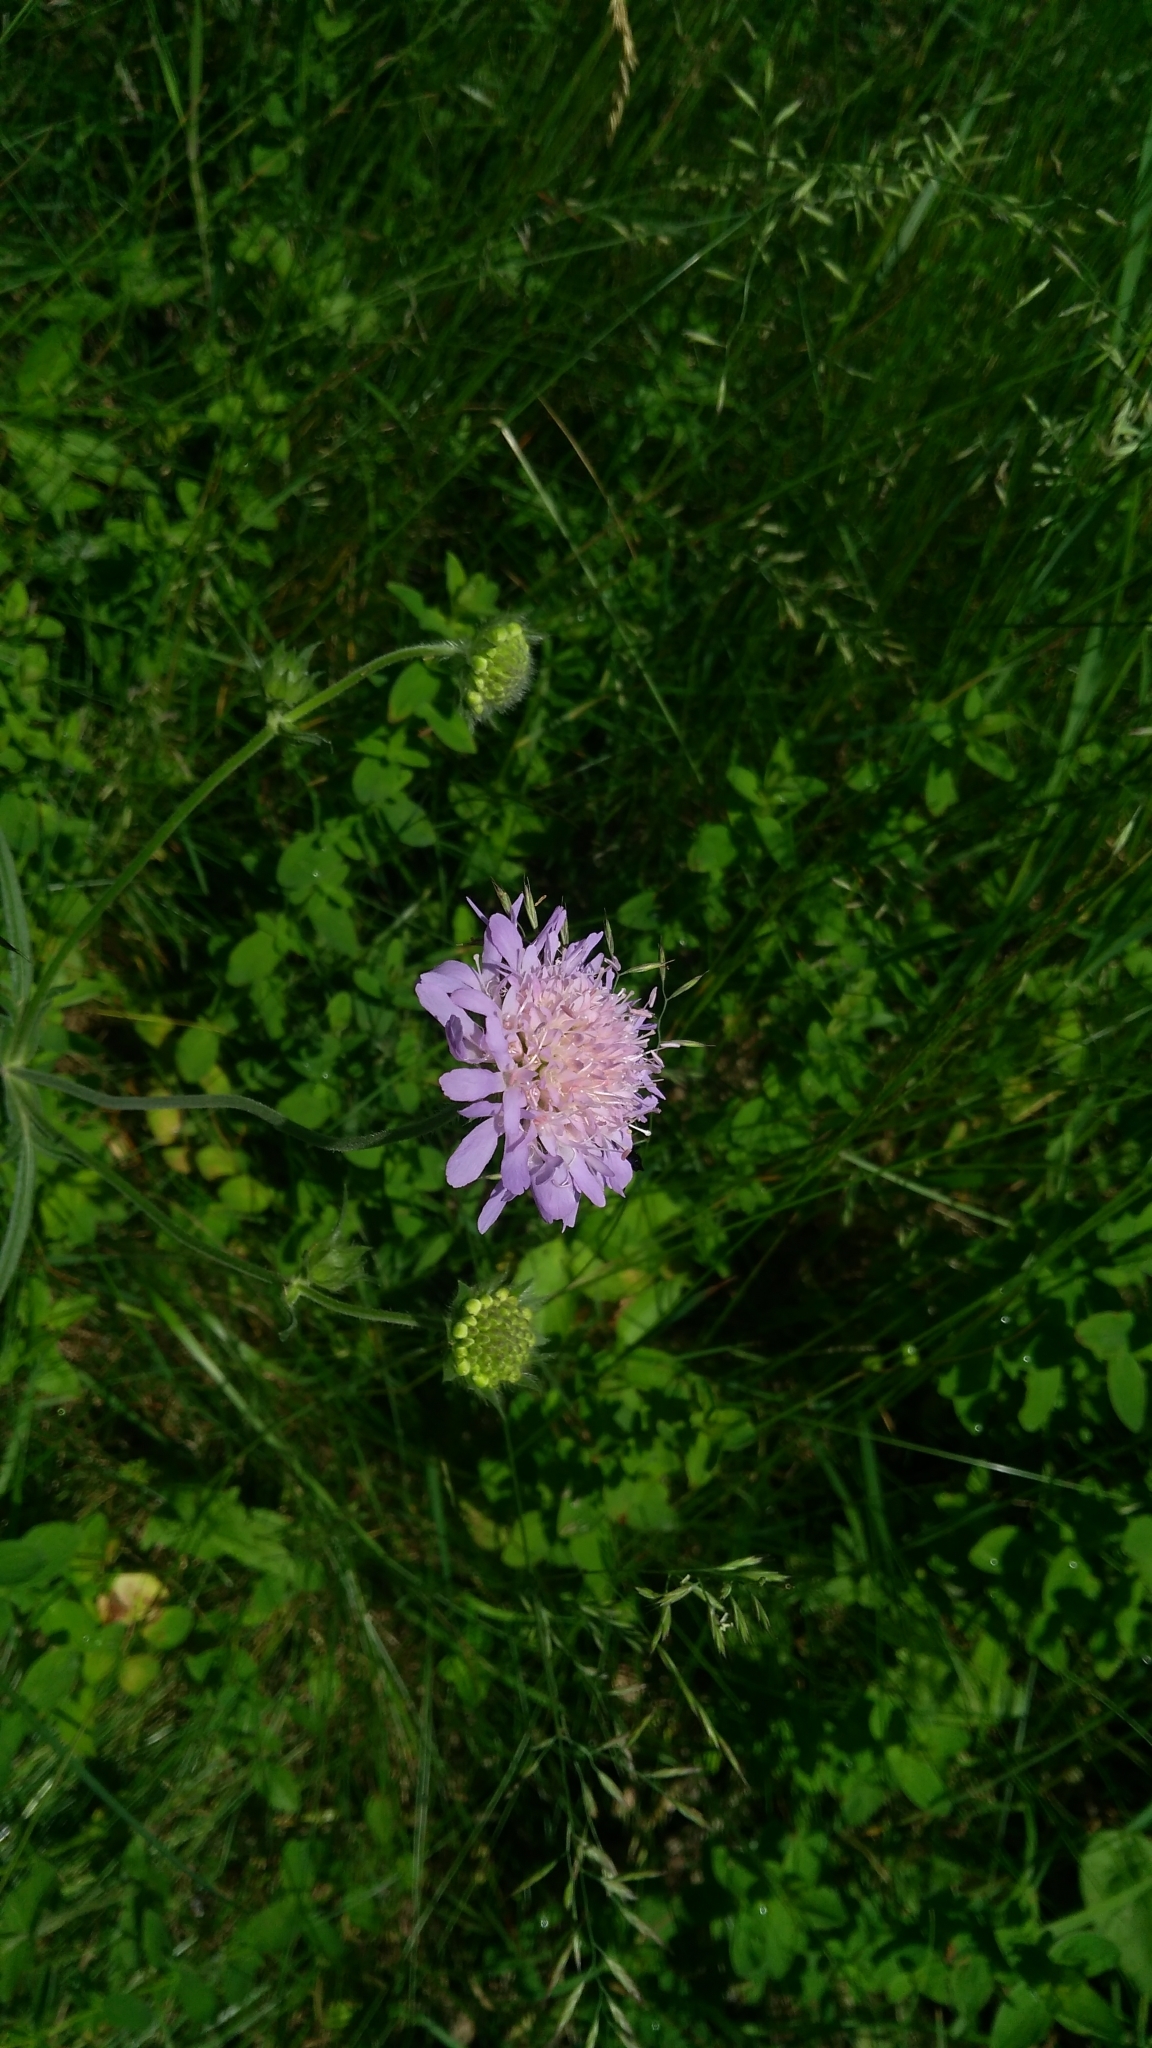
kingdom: Plantae
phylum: Tracheophyta
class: Magnoliopsida
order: Dipsacales
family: Caprifoliaceae
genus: Knautia
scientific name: Knautia arvensis
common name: Field scabiosa
